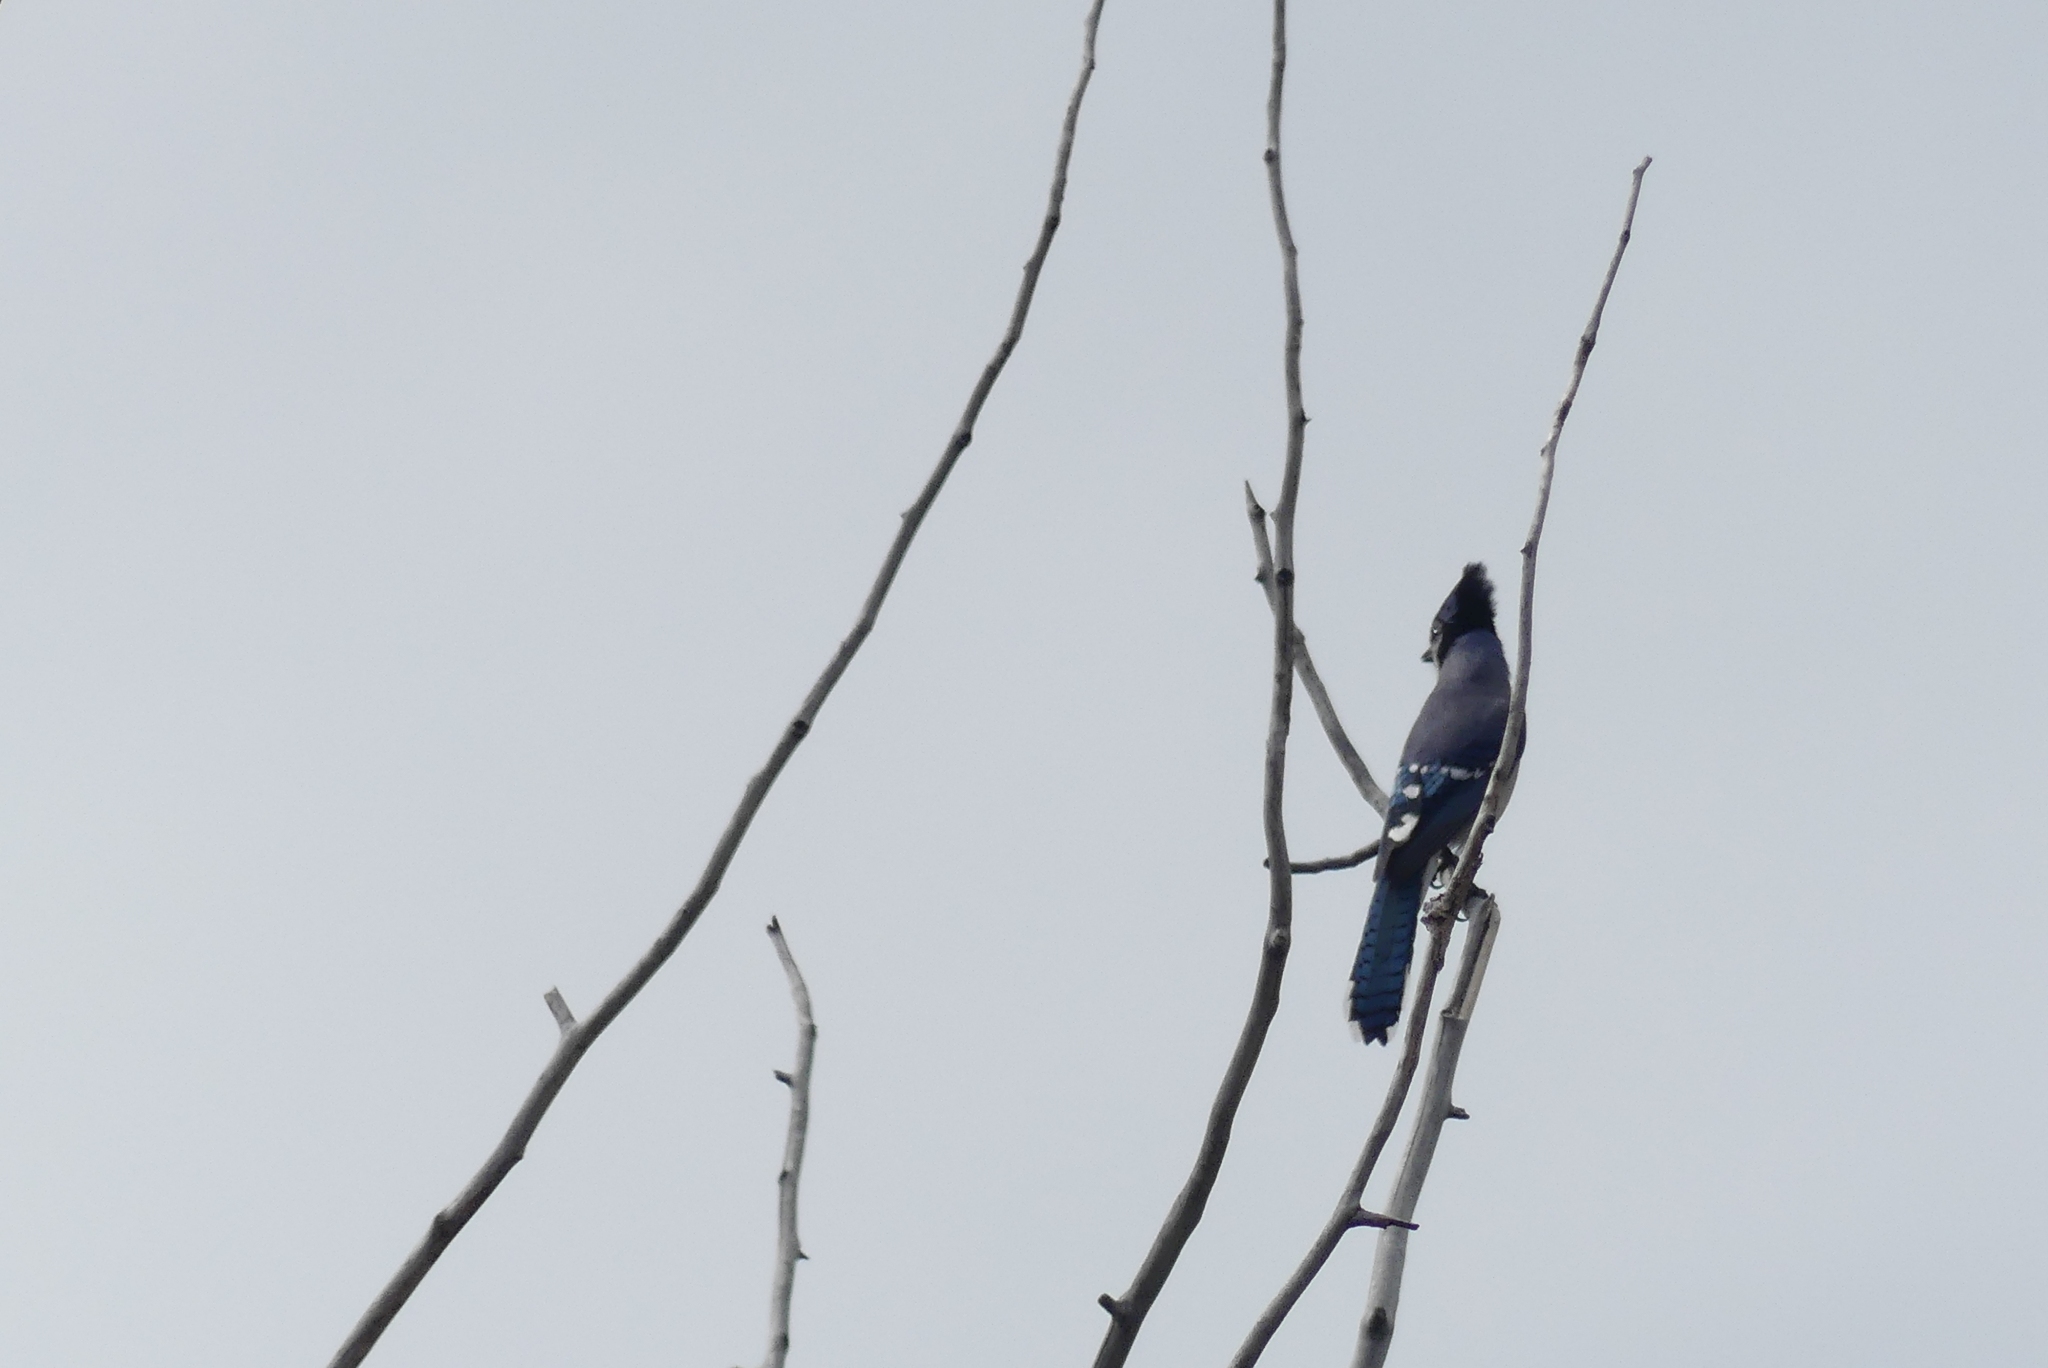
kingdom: Animalia
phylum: Chordata
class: Aves
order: Passeriformes
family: Corvidae
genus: Cyanocitta
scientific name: Cyanocitta cristata
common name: Blue jay
